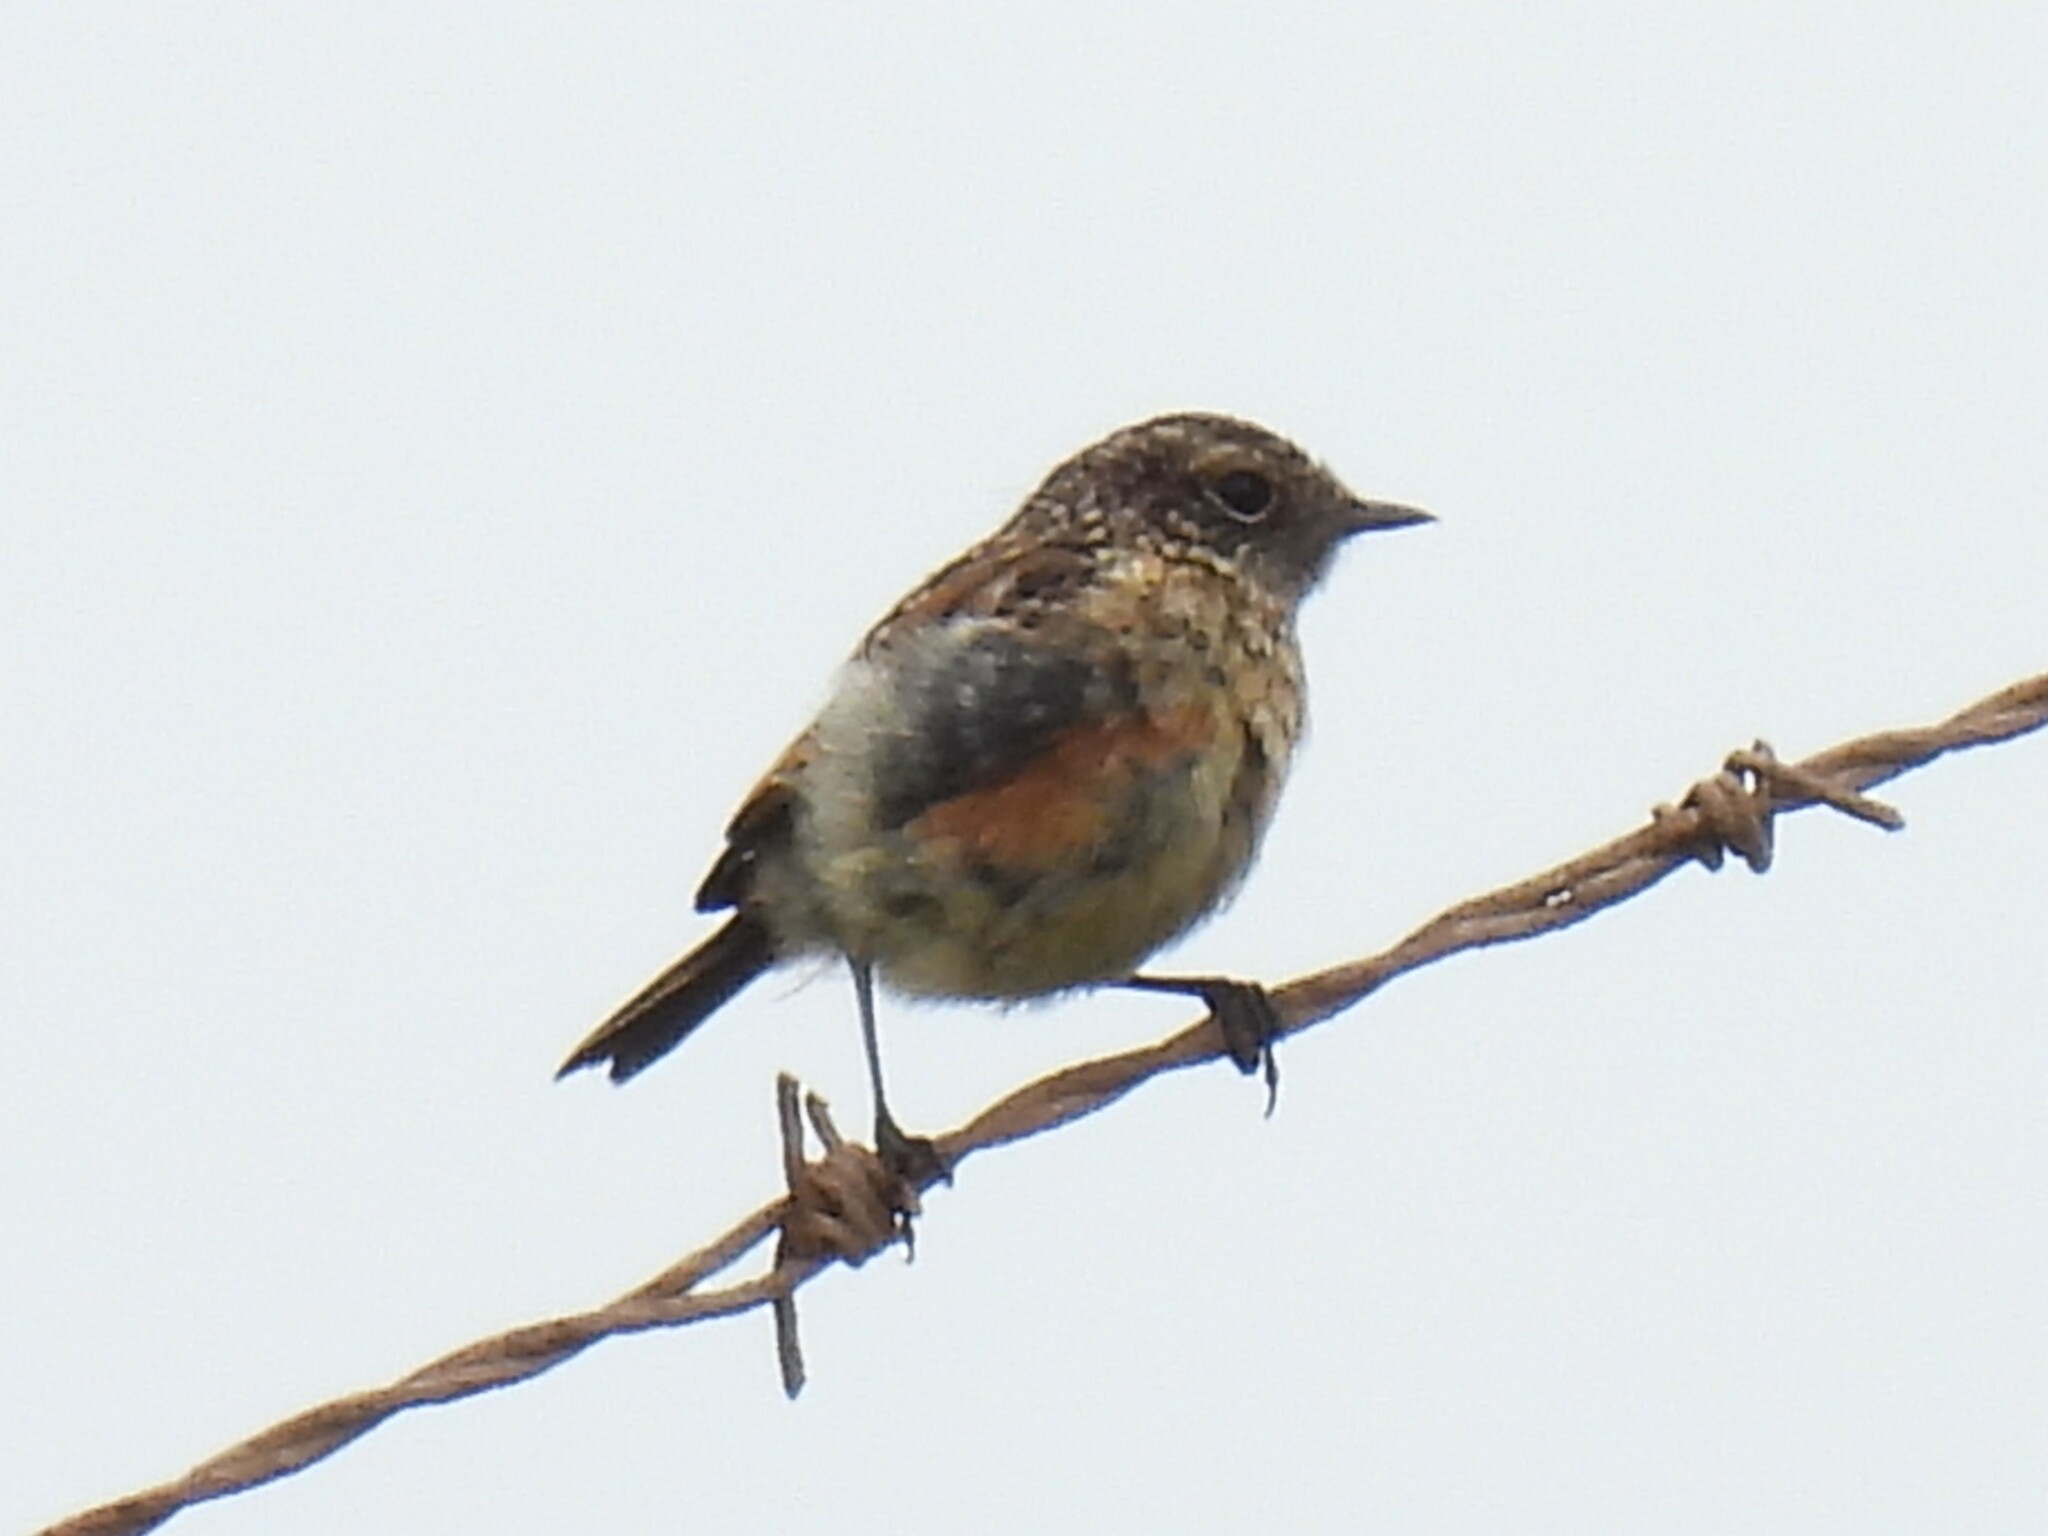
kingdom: Animalia
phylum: Chordata
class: Aves
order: Passeriformes
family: Muscicapidae
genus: Saxicola
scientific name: Saxicola rubicola
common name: European stonechat
